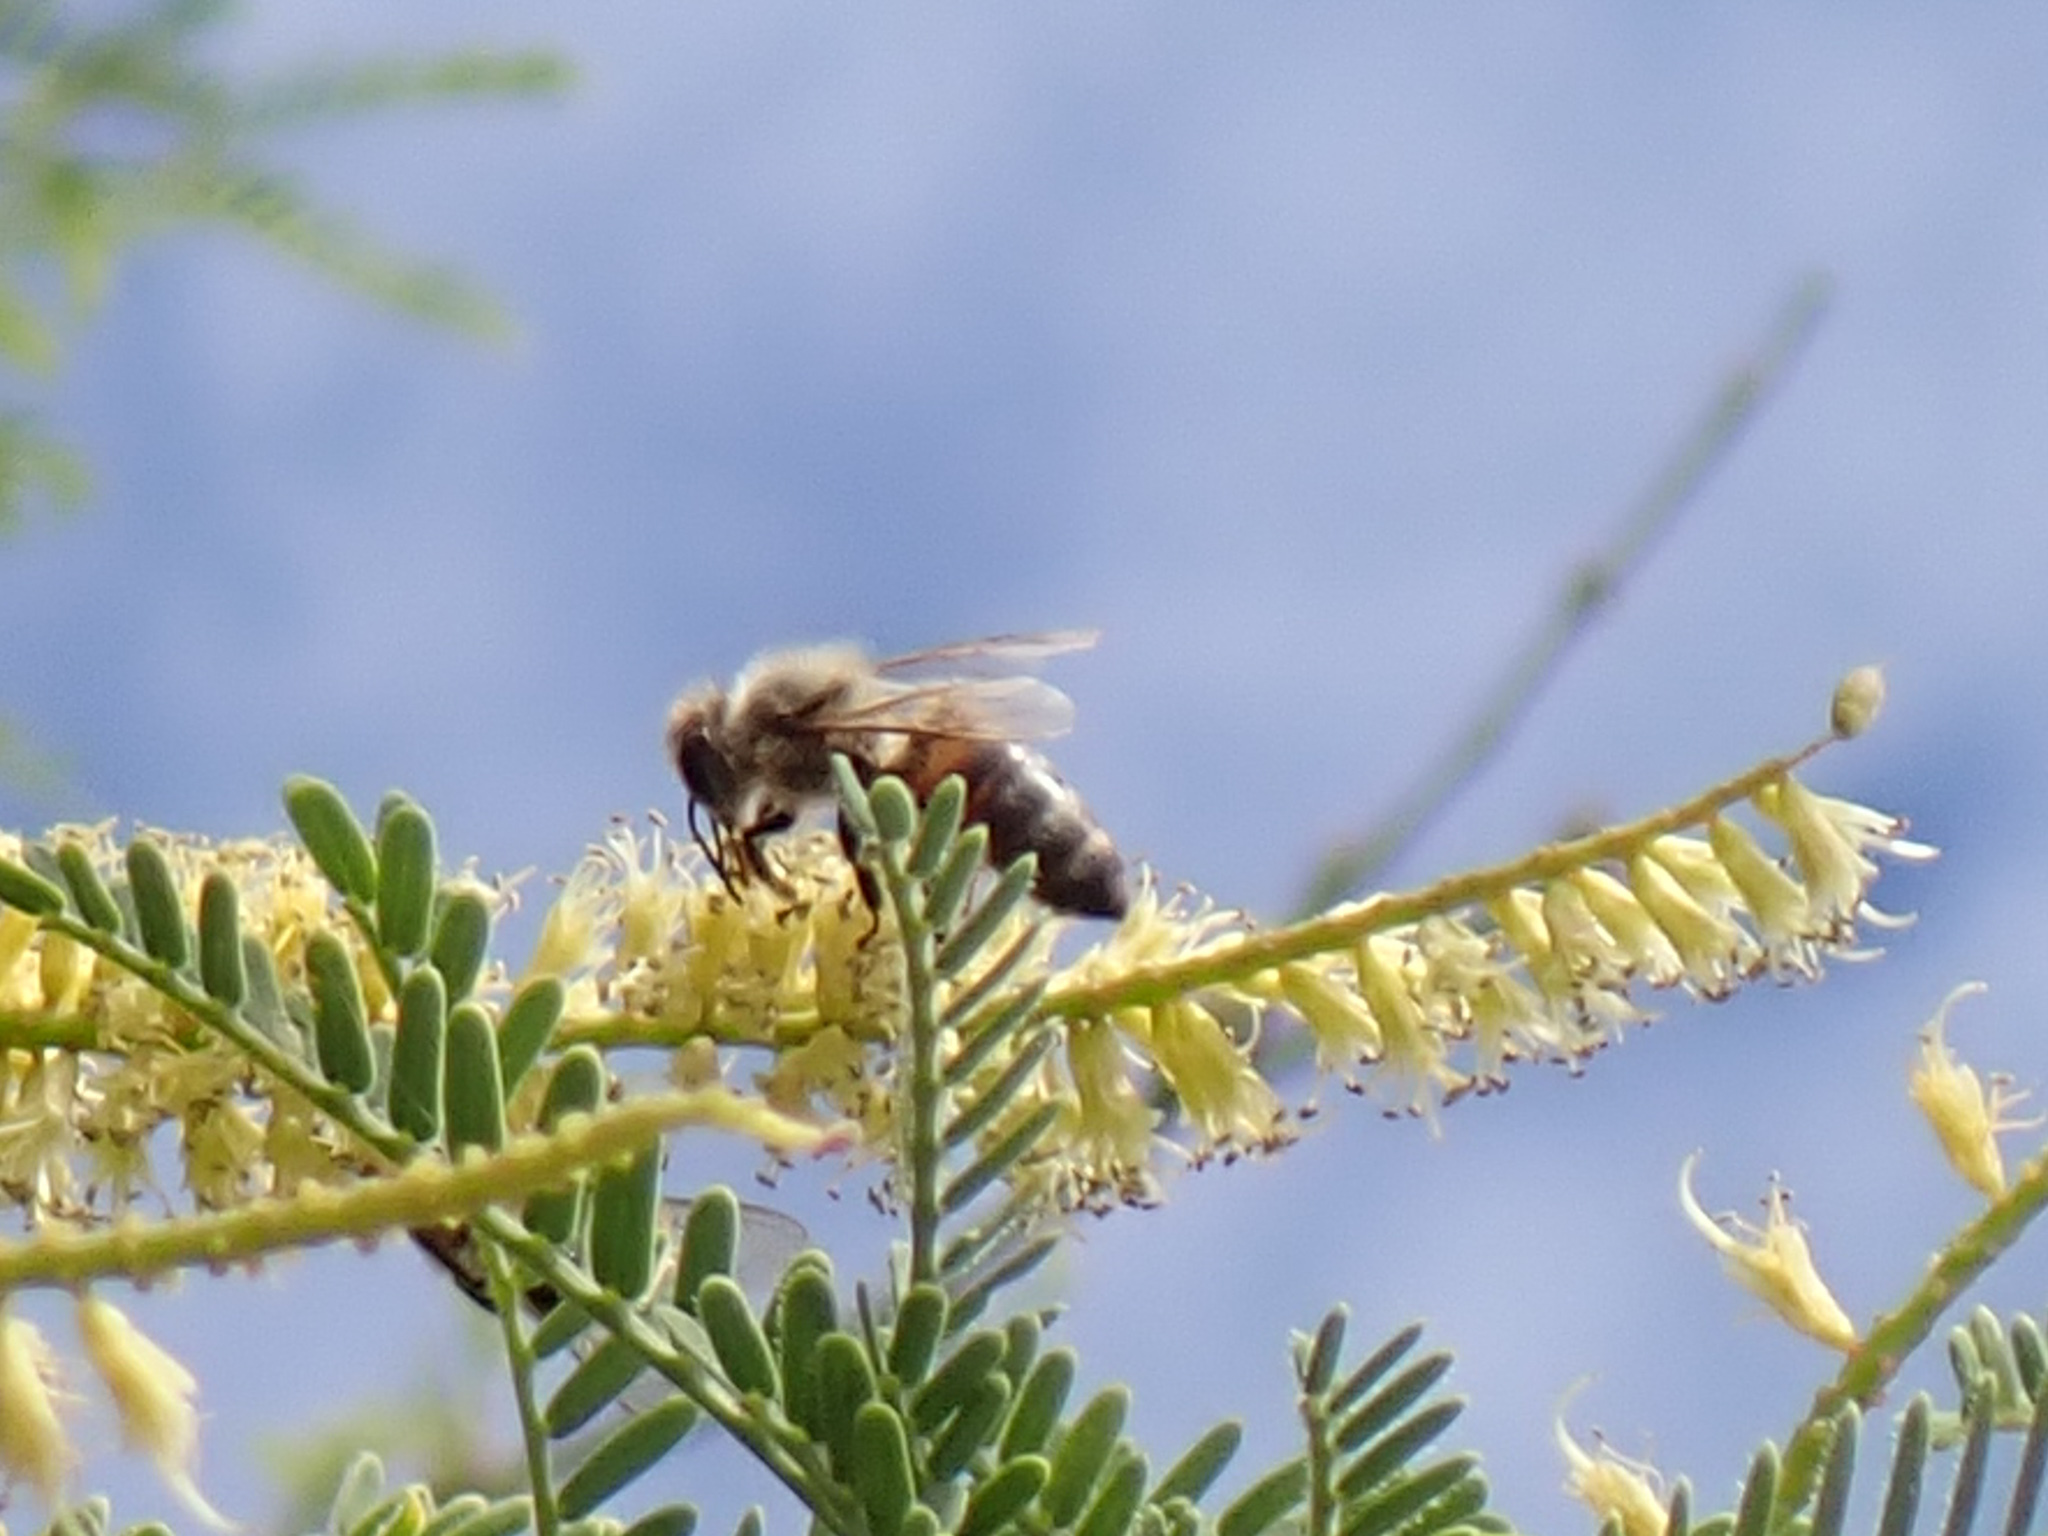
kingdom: Animalia
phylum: Arthropoda
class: Insecta
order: Hymenoptera
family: Apidae
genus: Apis
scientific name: Apis mellifera
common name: Honey bee
